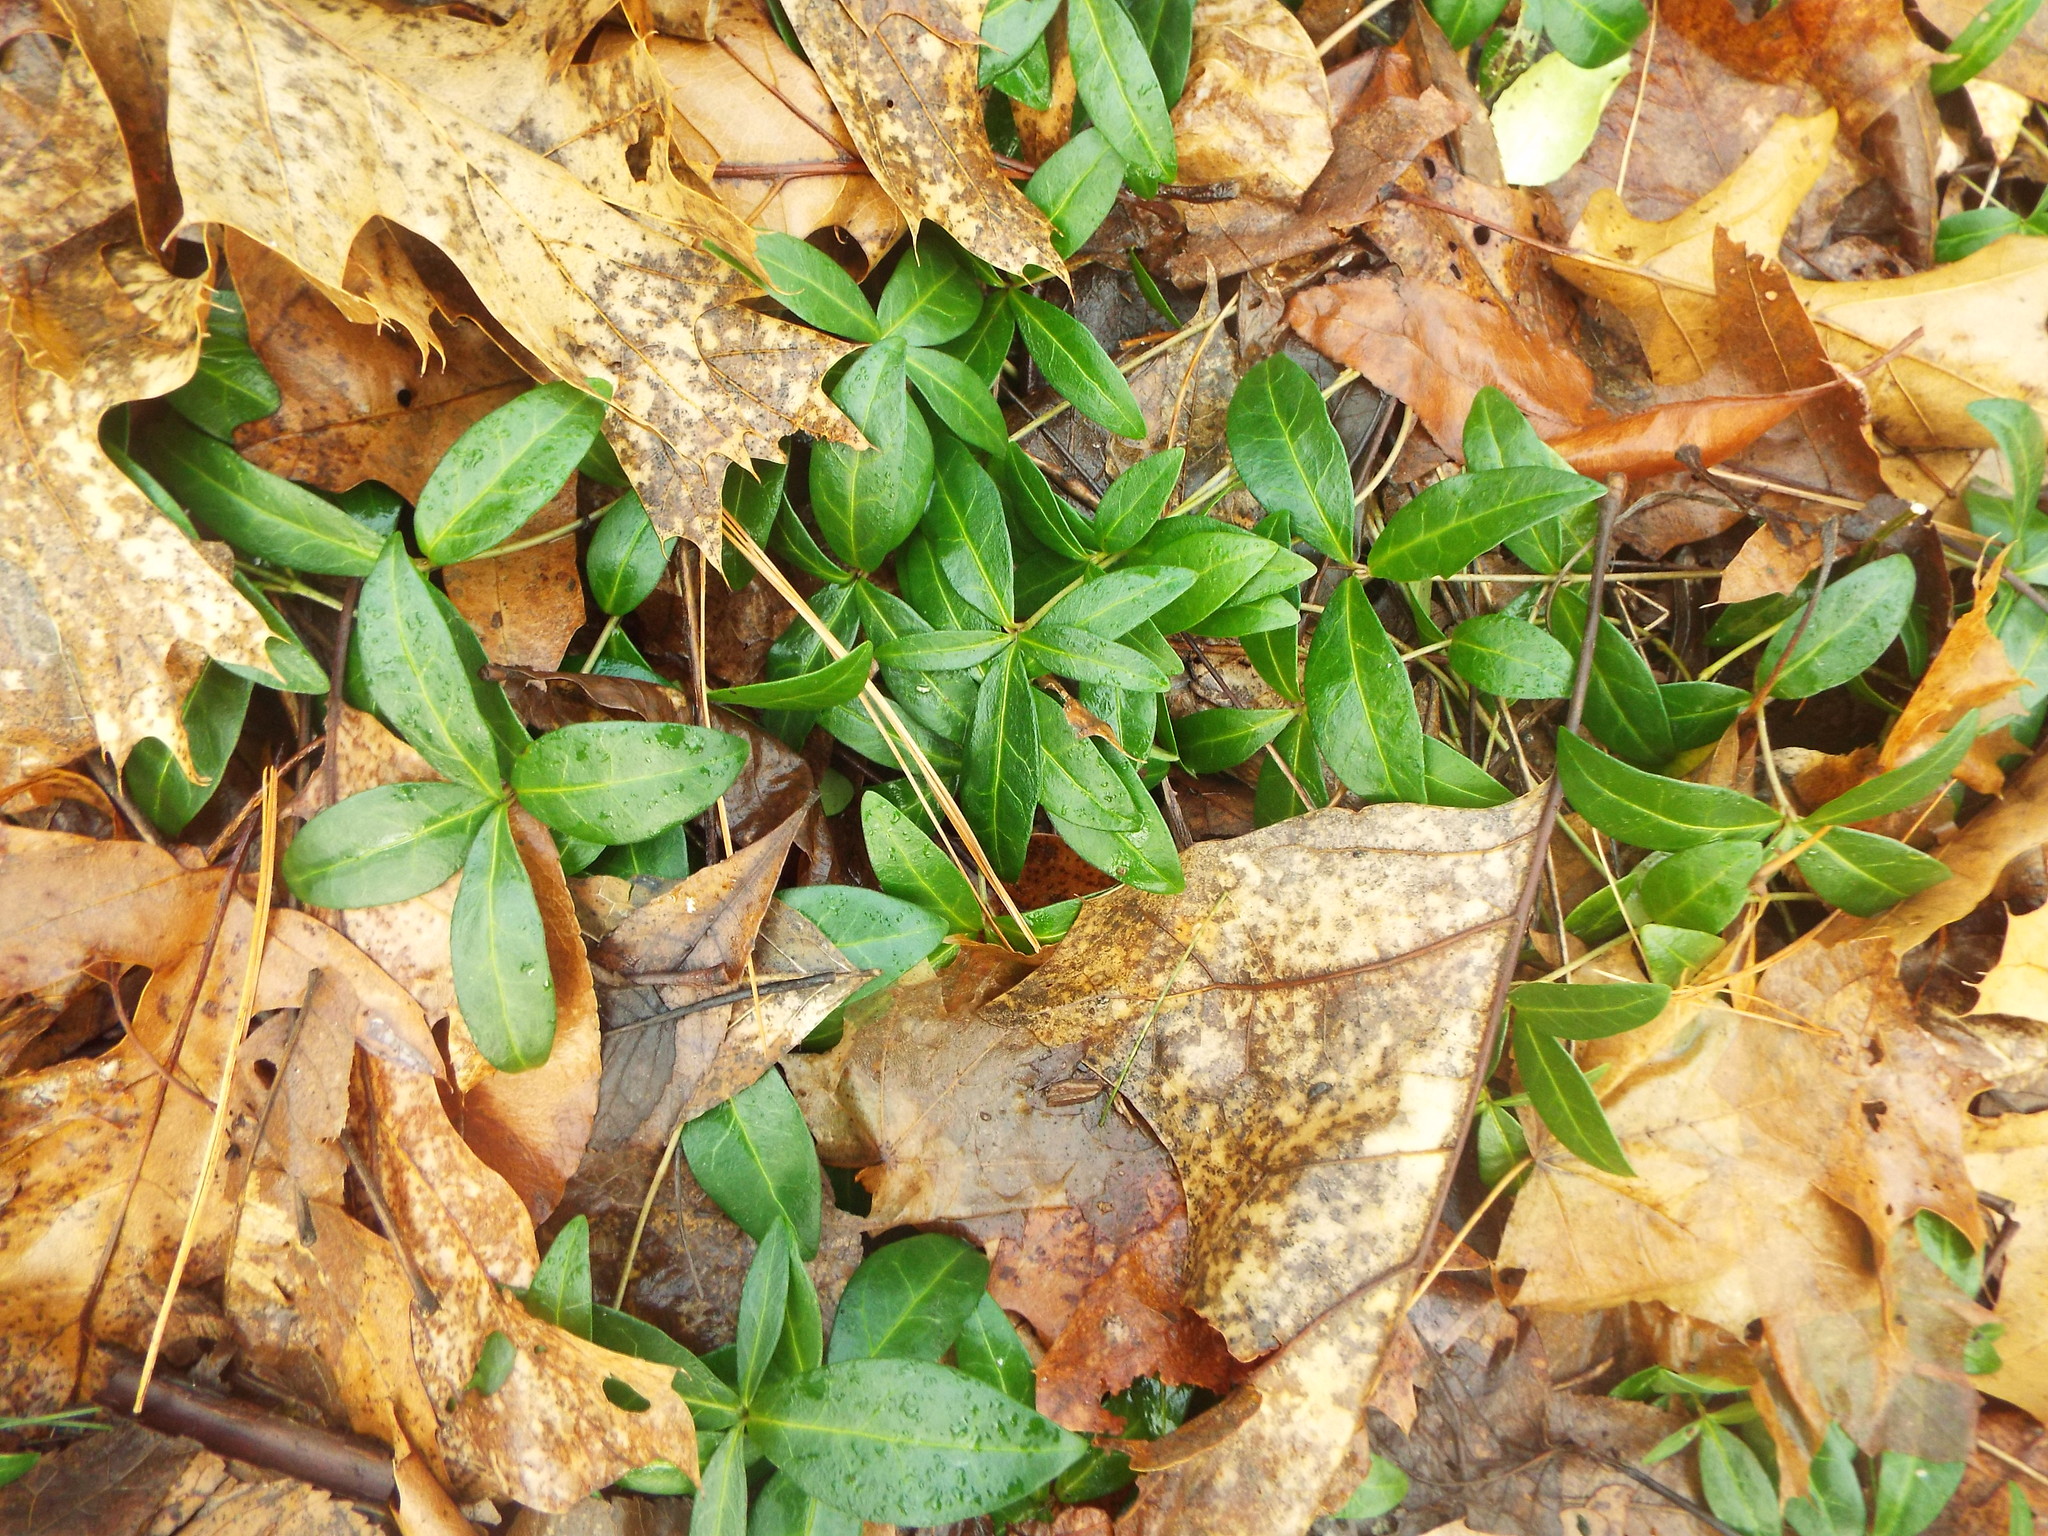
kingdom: Plantae
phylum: Tracheophyta
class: Magnoliopsida
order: Gentianales
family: Apocynaceae
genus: Vinca
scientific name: Vinca minor
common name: Lesser periwinkle
